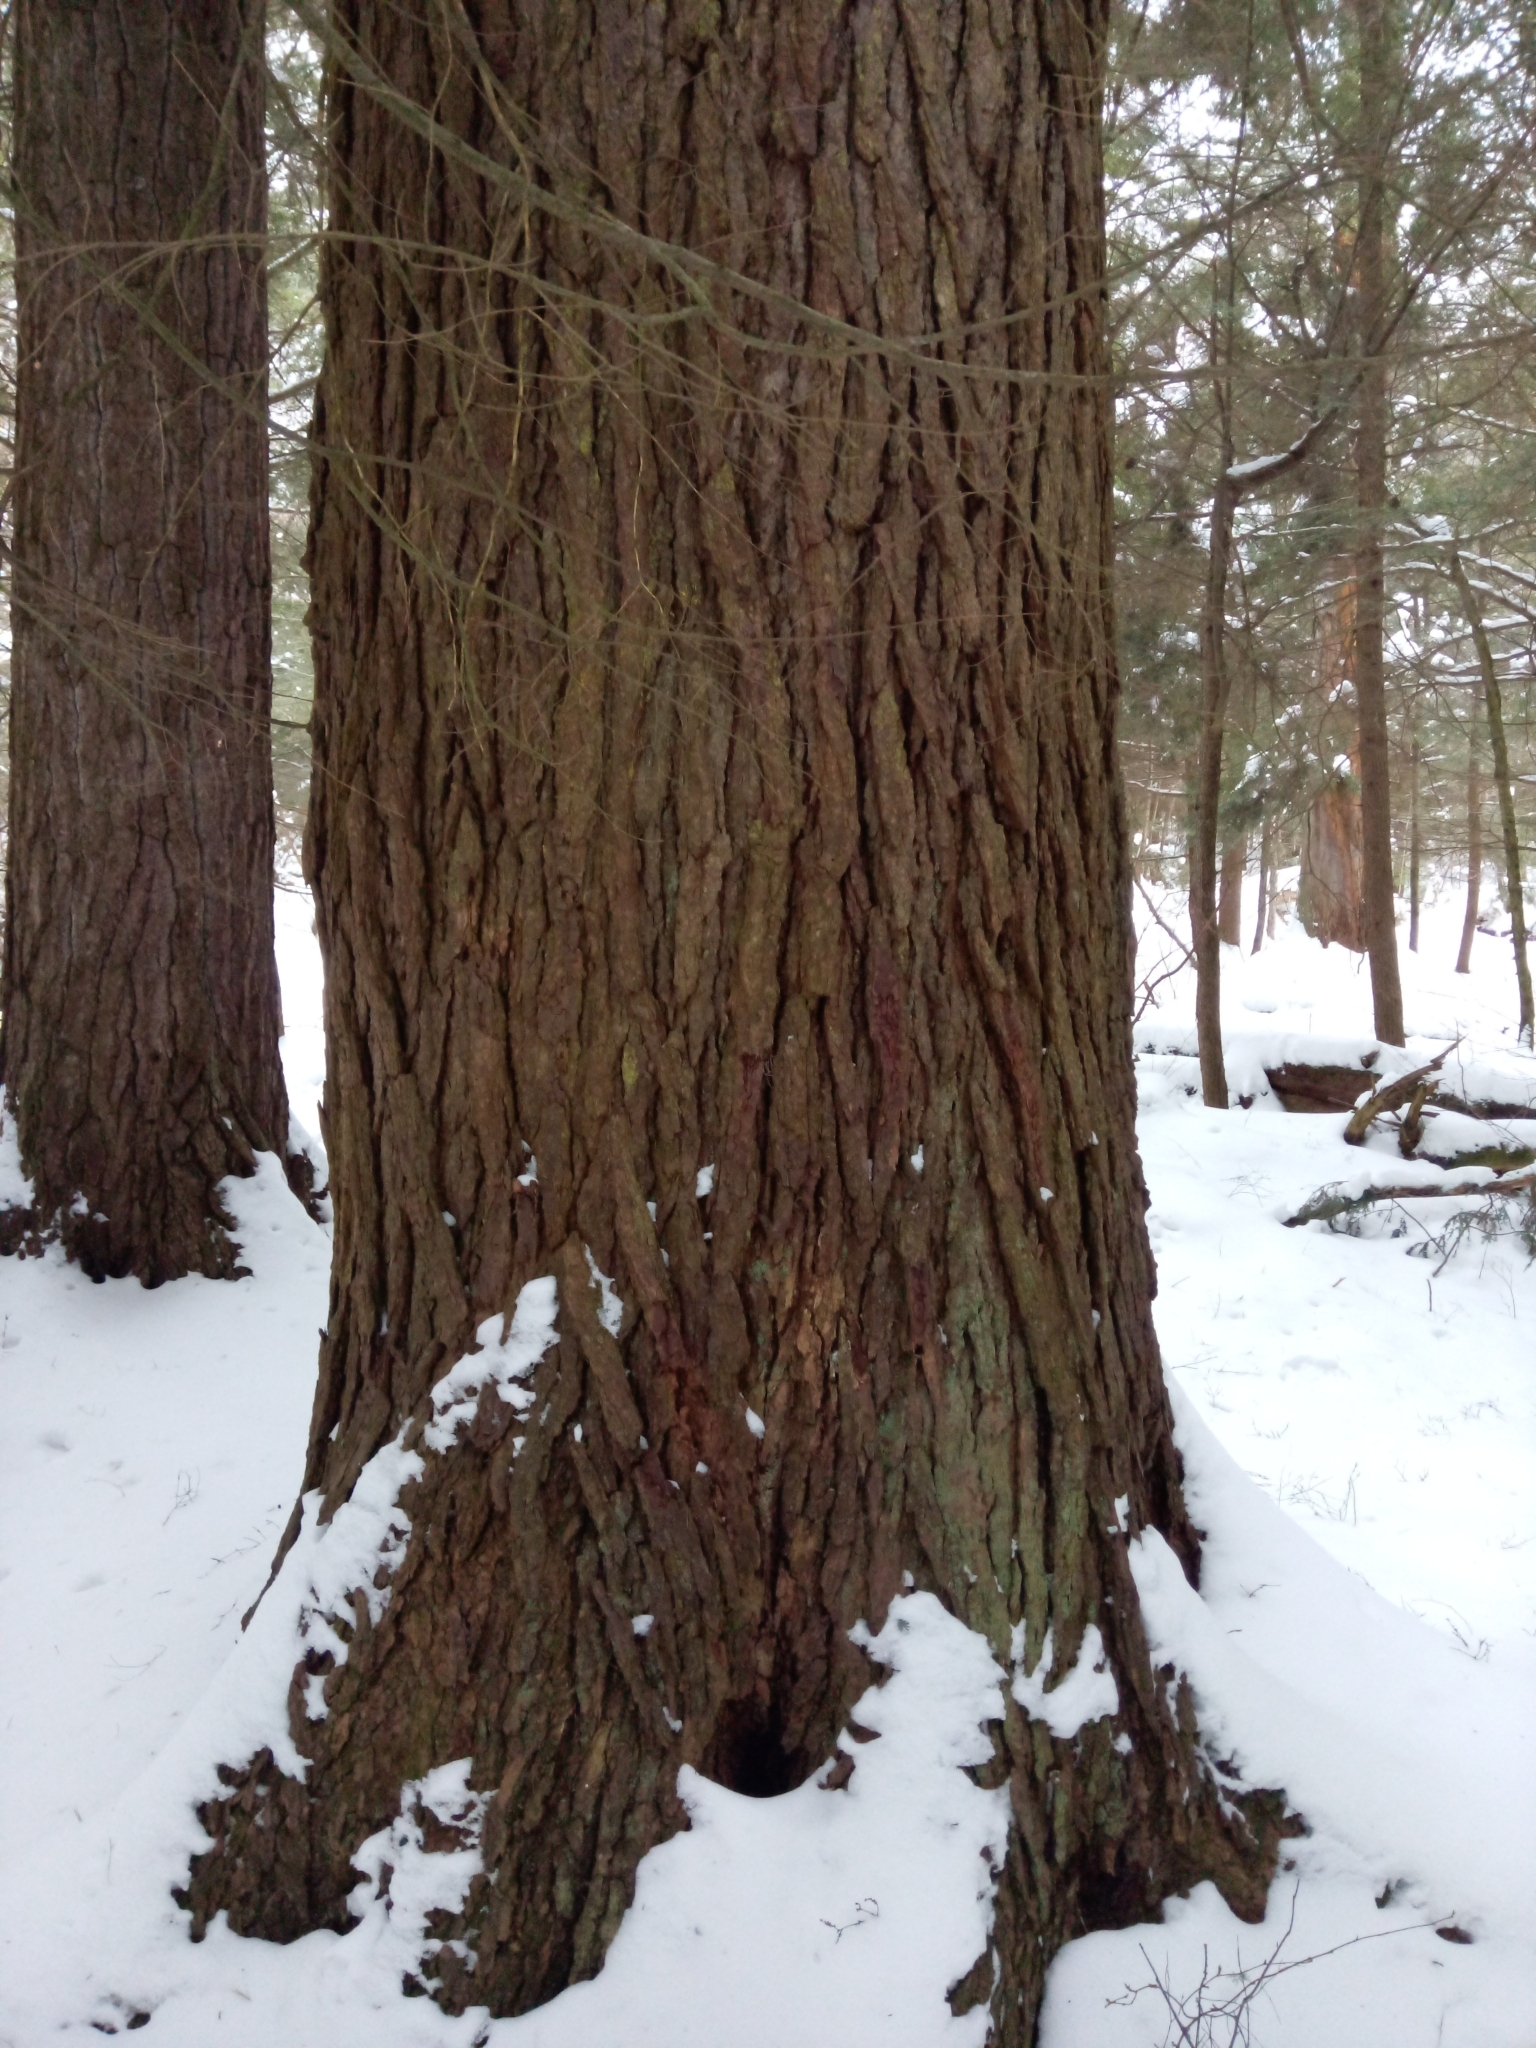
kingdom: Plantae
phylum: Tracheophyta
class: Pinopsida
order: Pinales
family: Pinaceae
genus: Tsuga
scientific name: Tsuga canadensis
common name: Eastern hemlock
